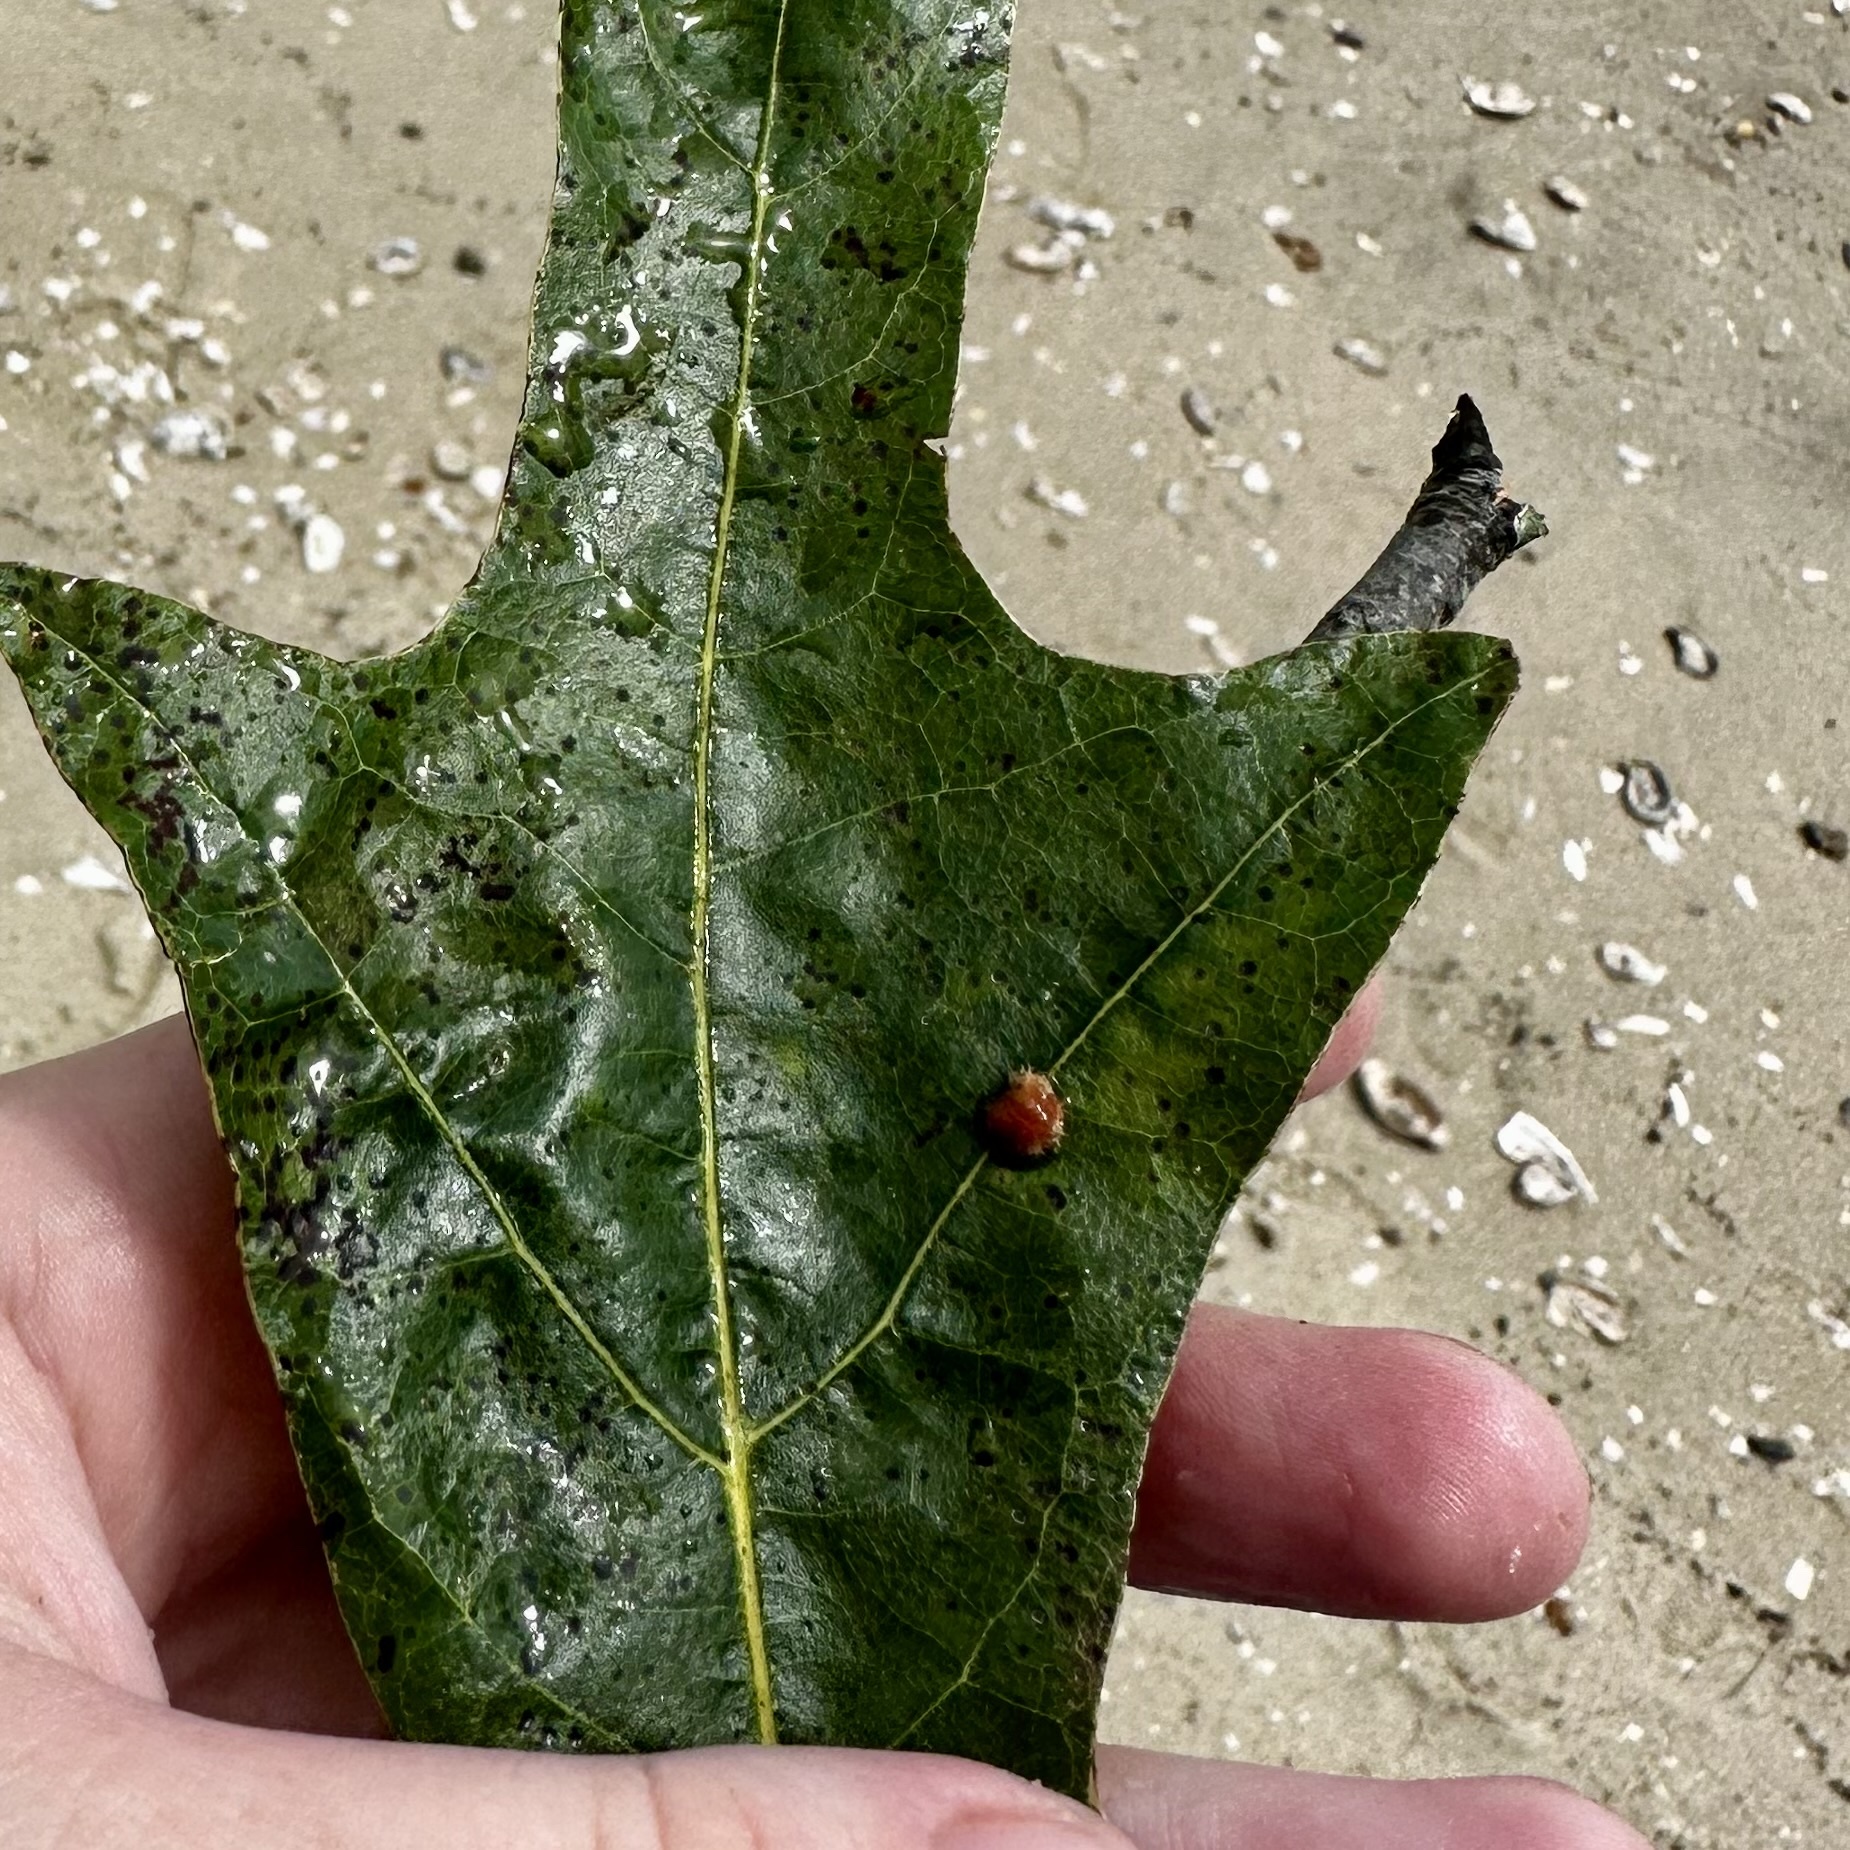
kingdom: Animalia
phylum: Arthropoda
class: Insecta
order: Hymenoptera
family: Cynipidae
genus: Callirhytis
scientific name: Callirhytis
